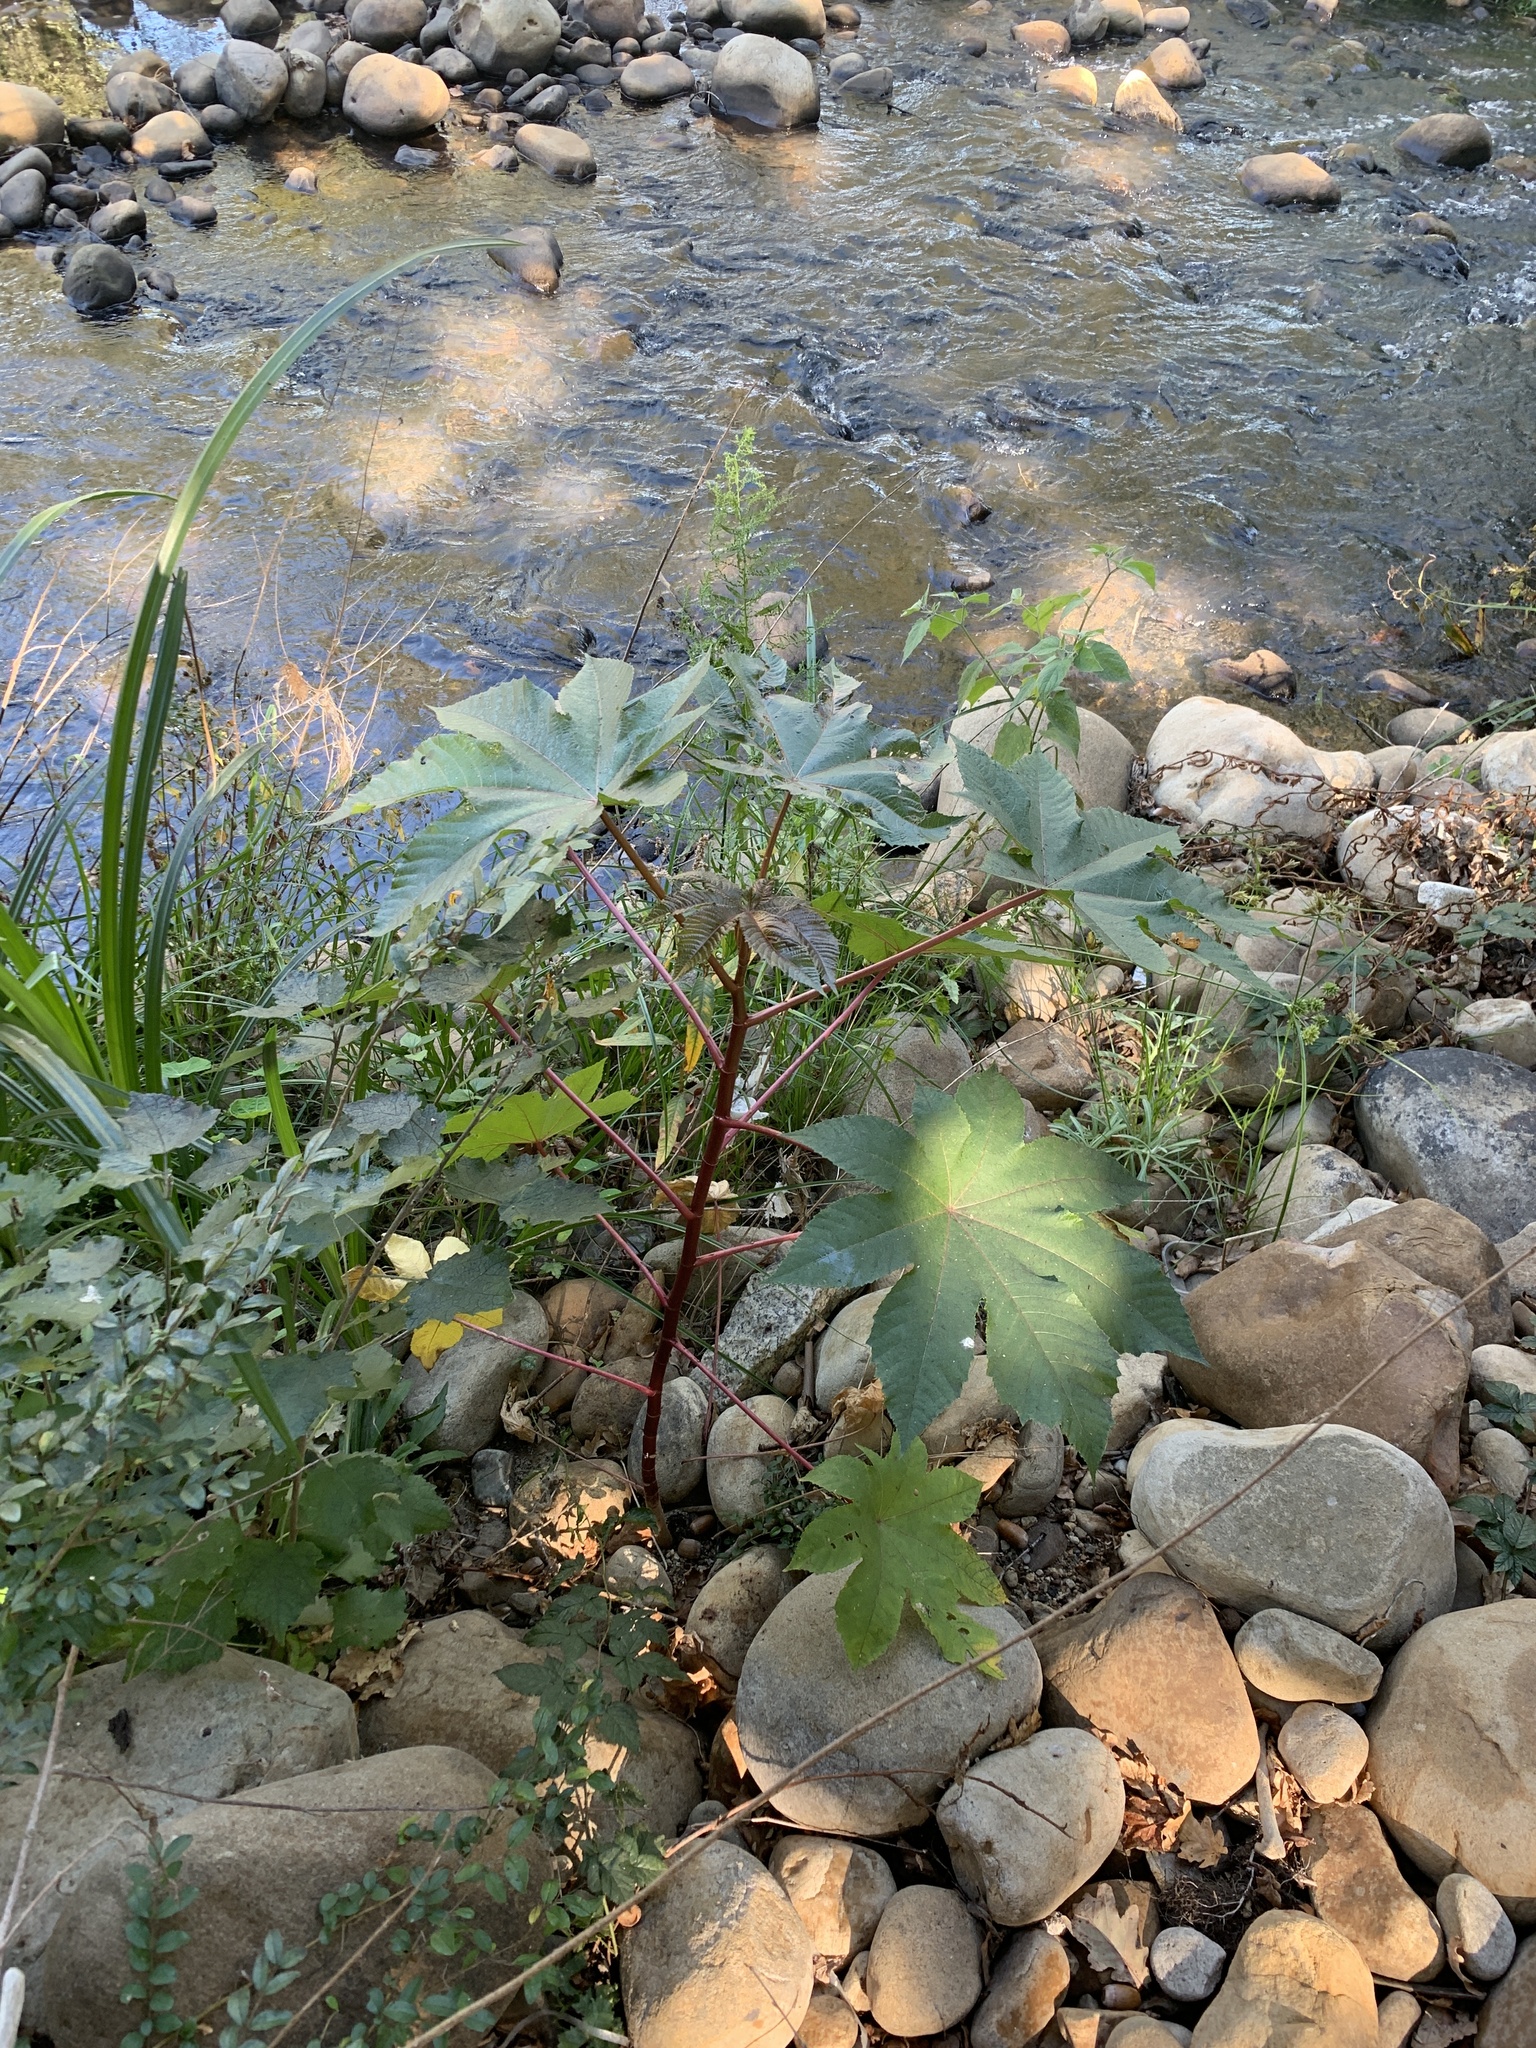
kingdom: Plantae
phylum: Tracheophyta
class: Magnoliopsida
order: Malpighiales
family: Euphorbiaceae
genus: Ricinus
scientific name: Ricinus communis
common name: Castor-oil-plant
